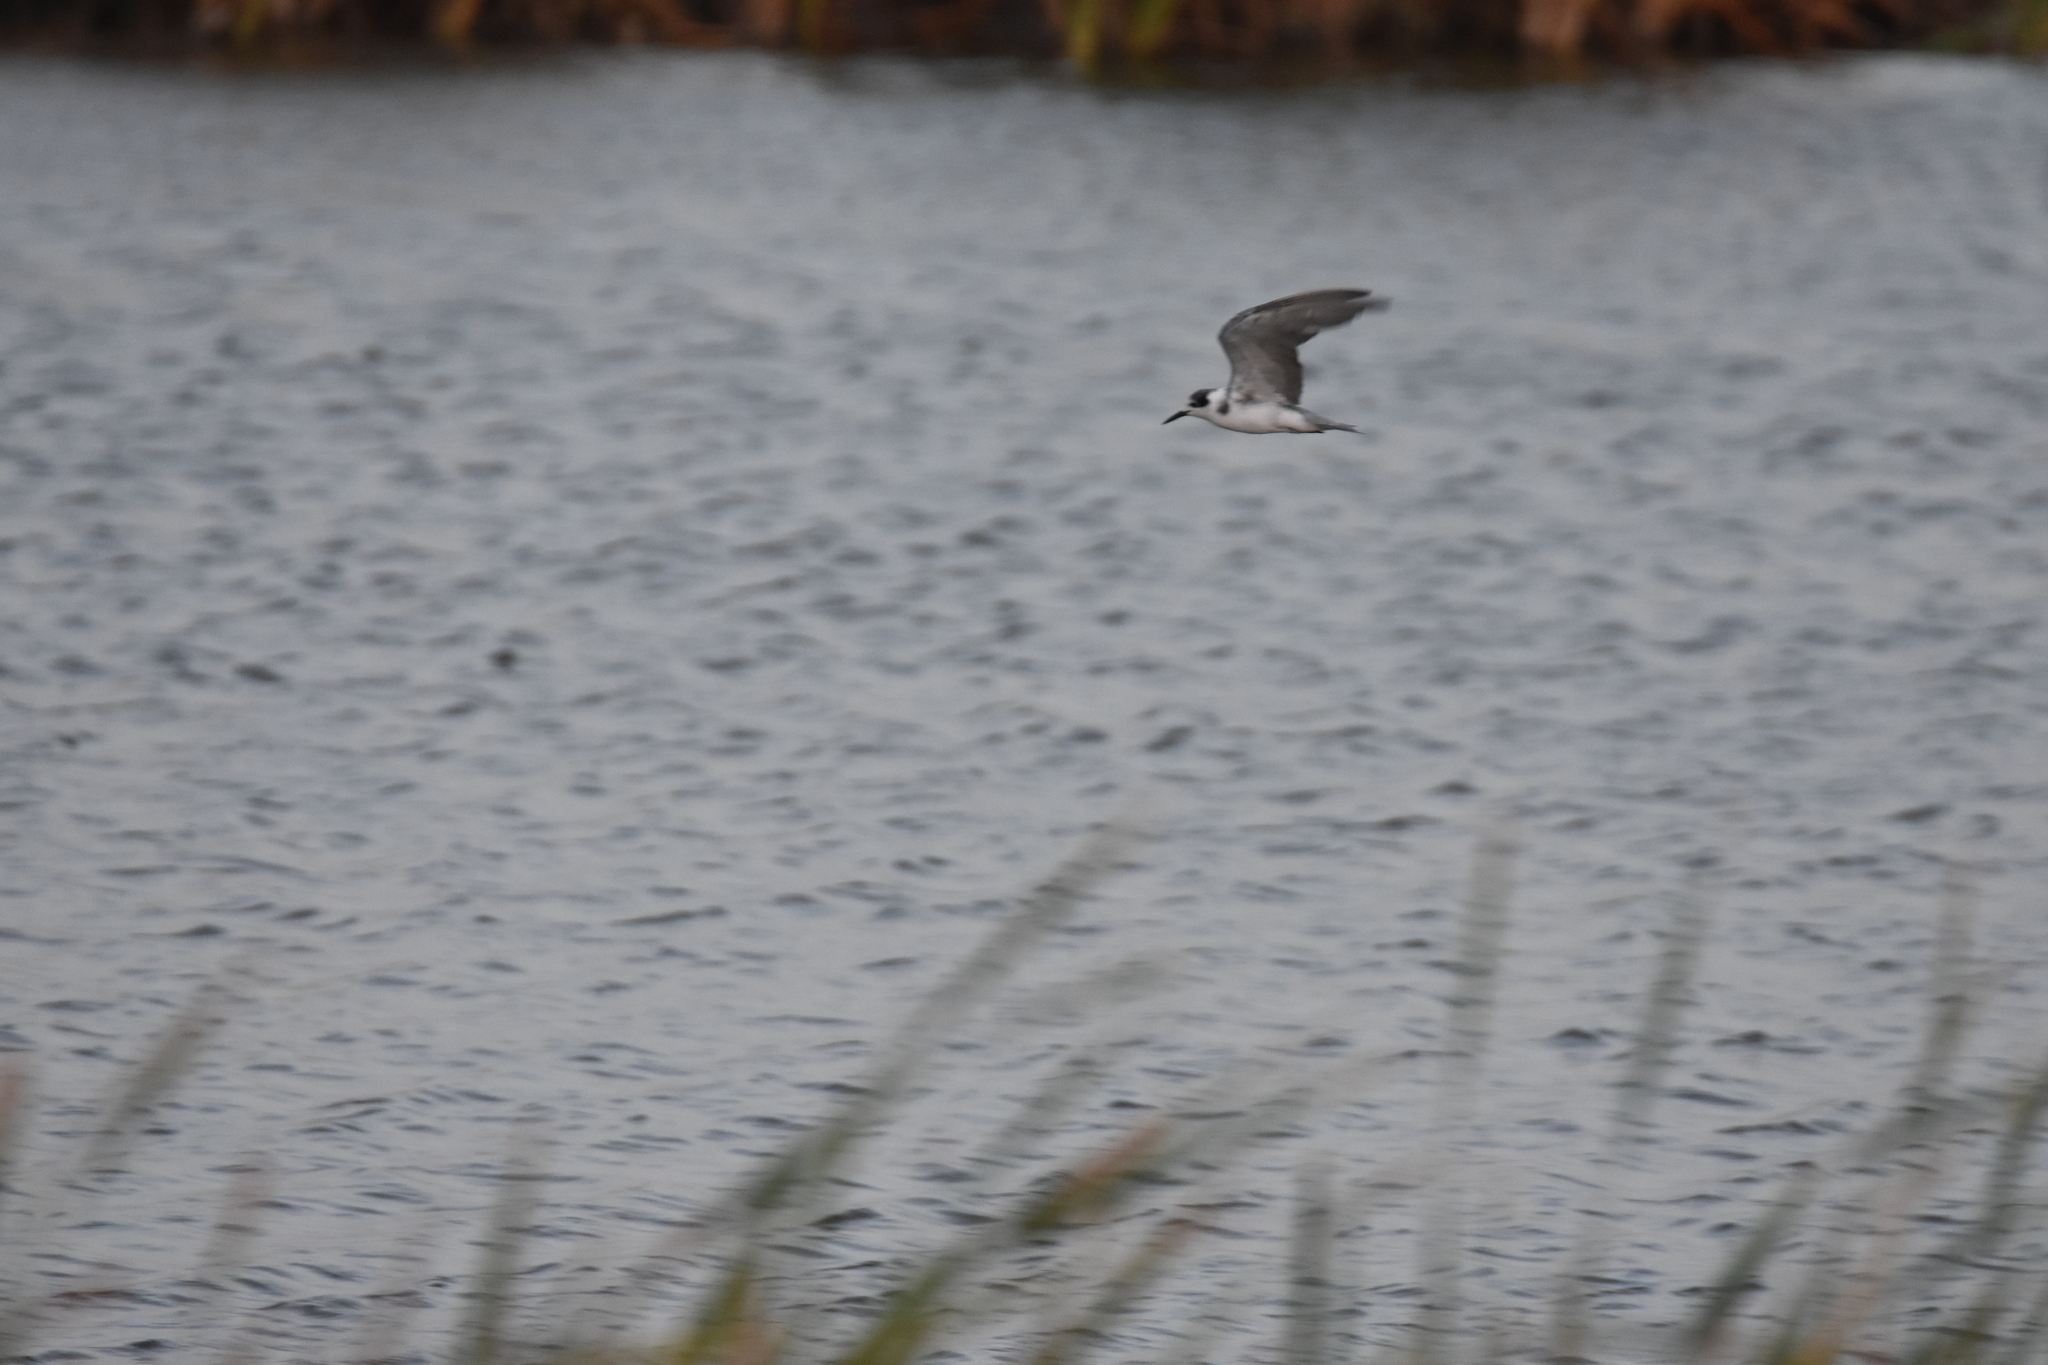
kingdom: Animalia
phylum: Chordata
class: Aves
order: Charadriiformes
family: Laridae
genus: Chlidonias
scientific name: Chlidonias niger
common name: Black tern
